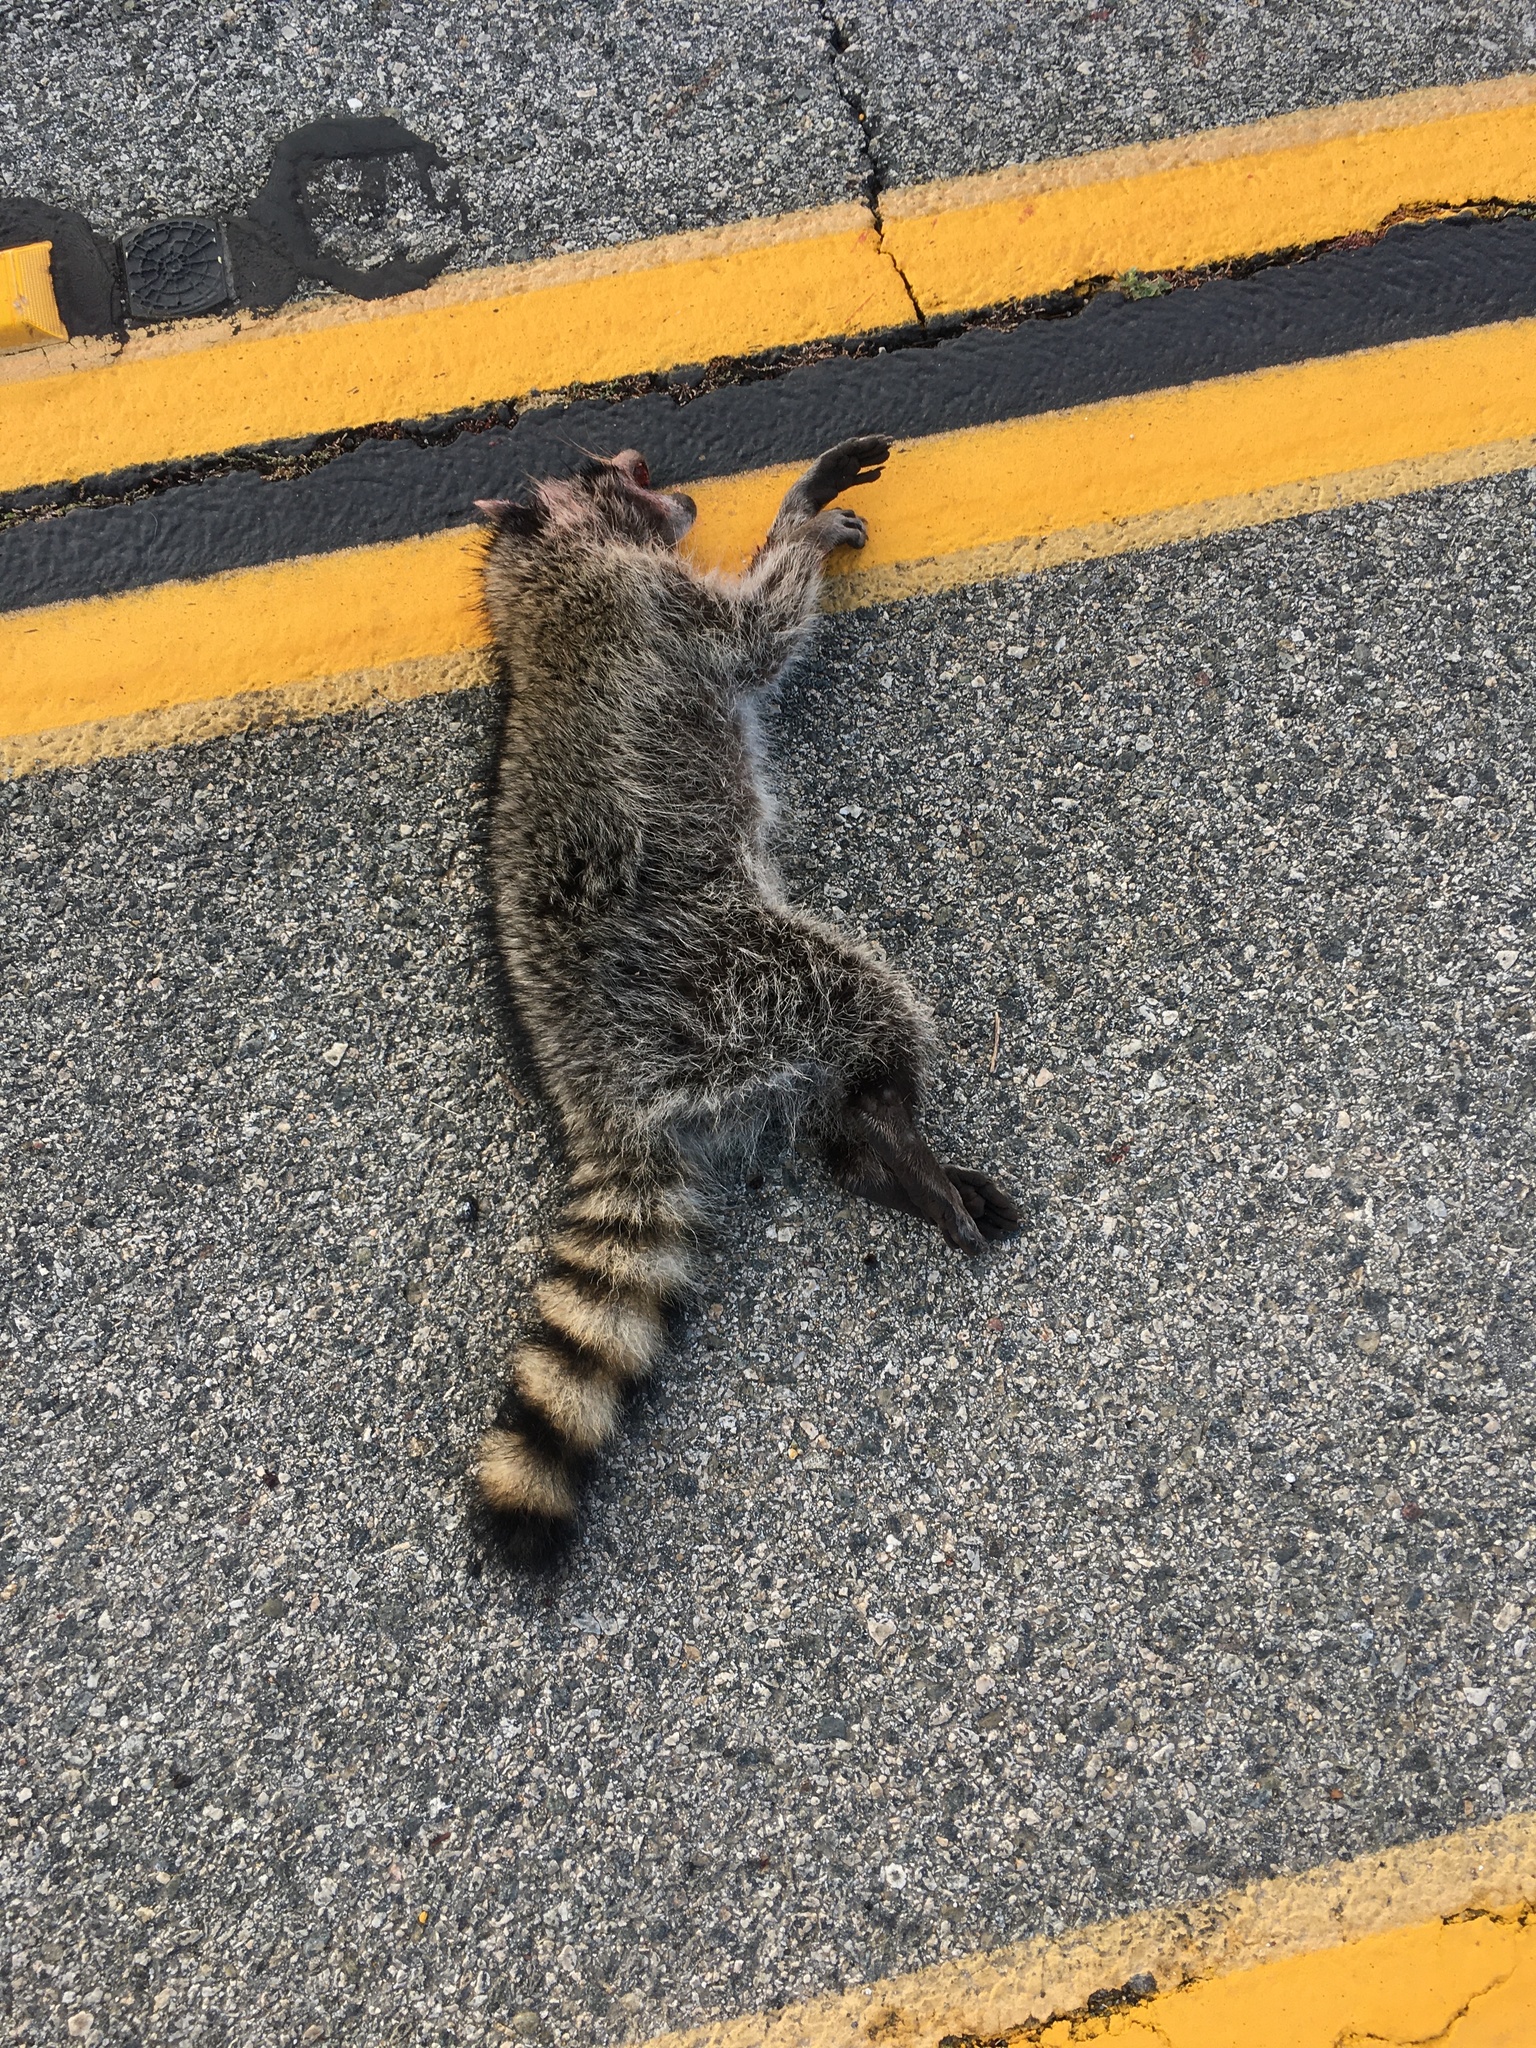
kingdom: Animalia
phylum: Chordata
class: Mammalia
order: Carnivora
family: Procyonidae
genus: Procyon
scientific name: Procyon lotor
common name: Raccoon
